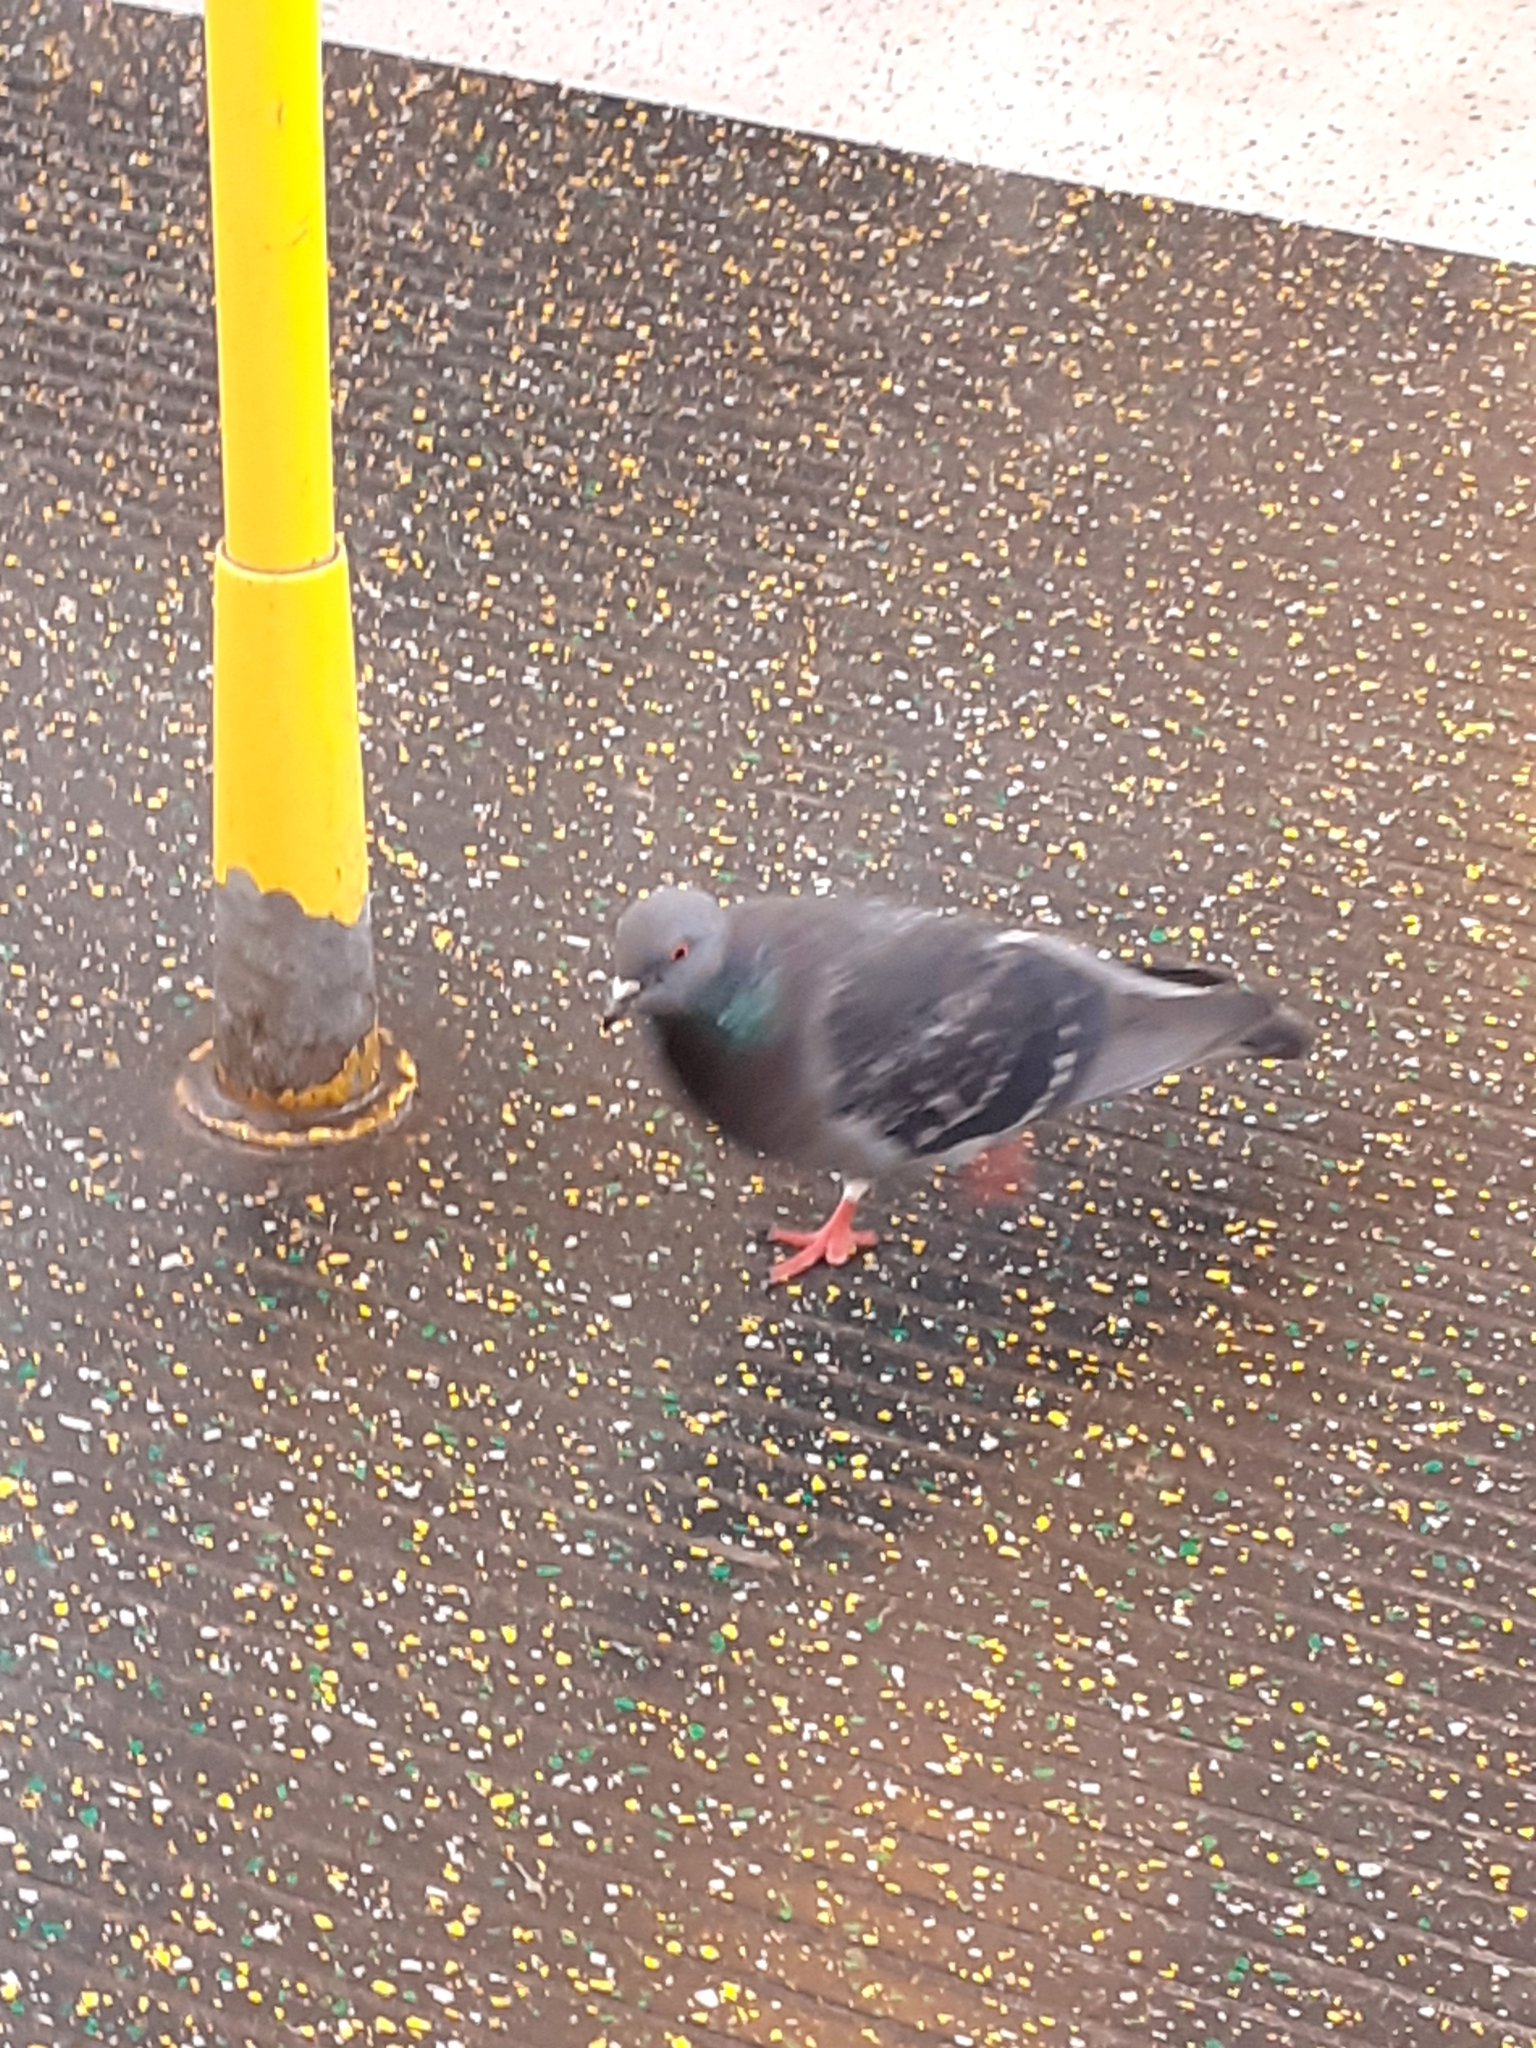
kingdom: Animalia
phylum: Chordata
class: Aves
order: Columbiformes
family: Columbidae
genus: Columba
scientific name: Columba livia
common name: Rock pigeon
